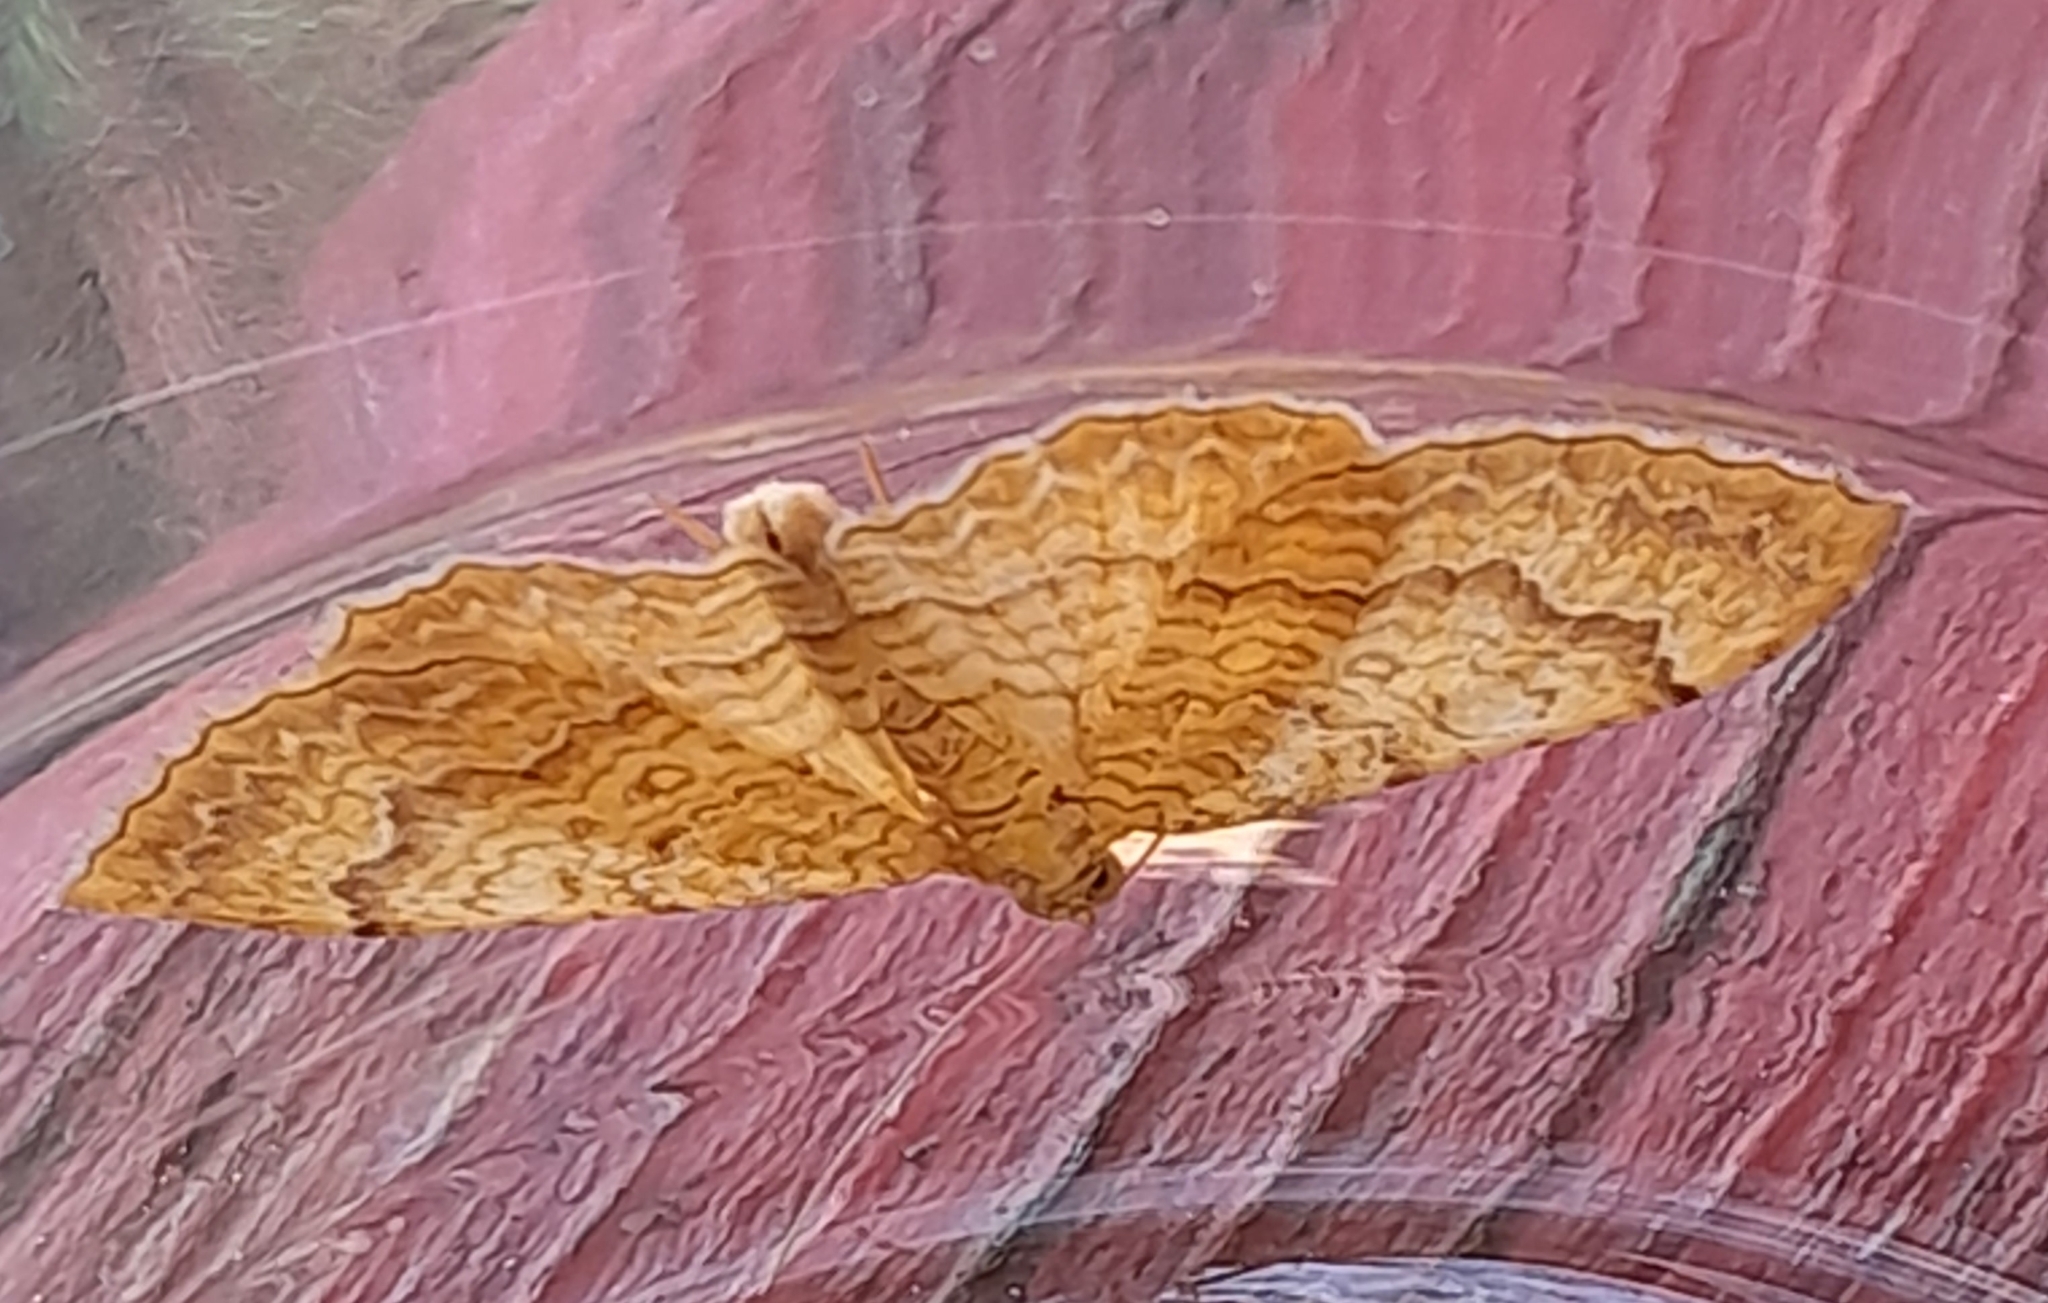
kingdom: Animalia
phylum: Arthropoda
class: Insecta
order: Lepidoptera
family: Geometridae
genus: Camptogramma
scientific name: Camptogramma bilineata
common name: Yellow shell
